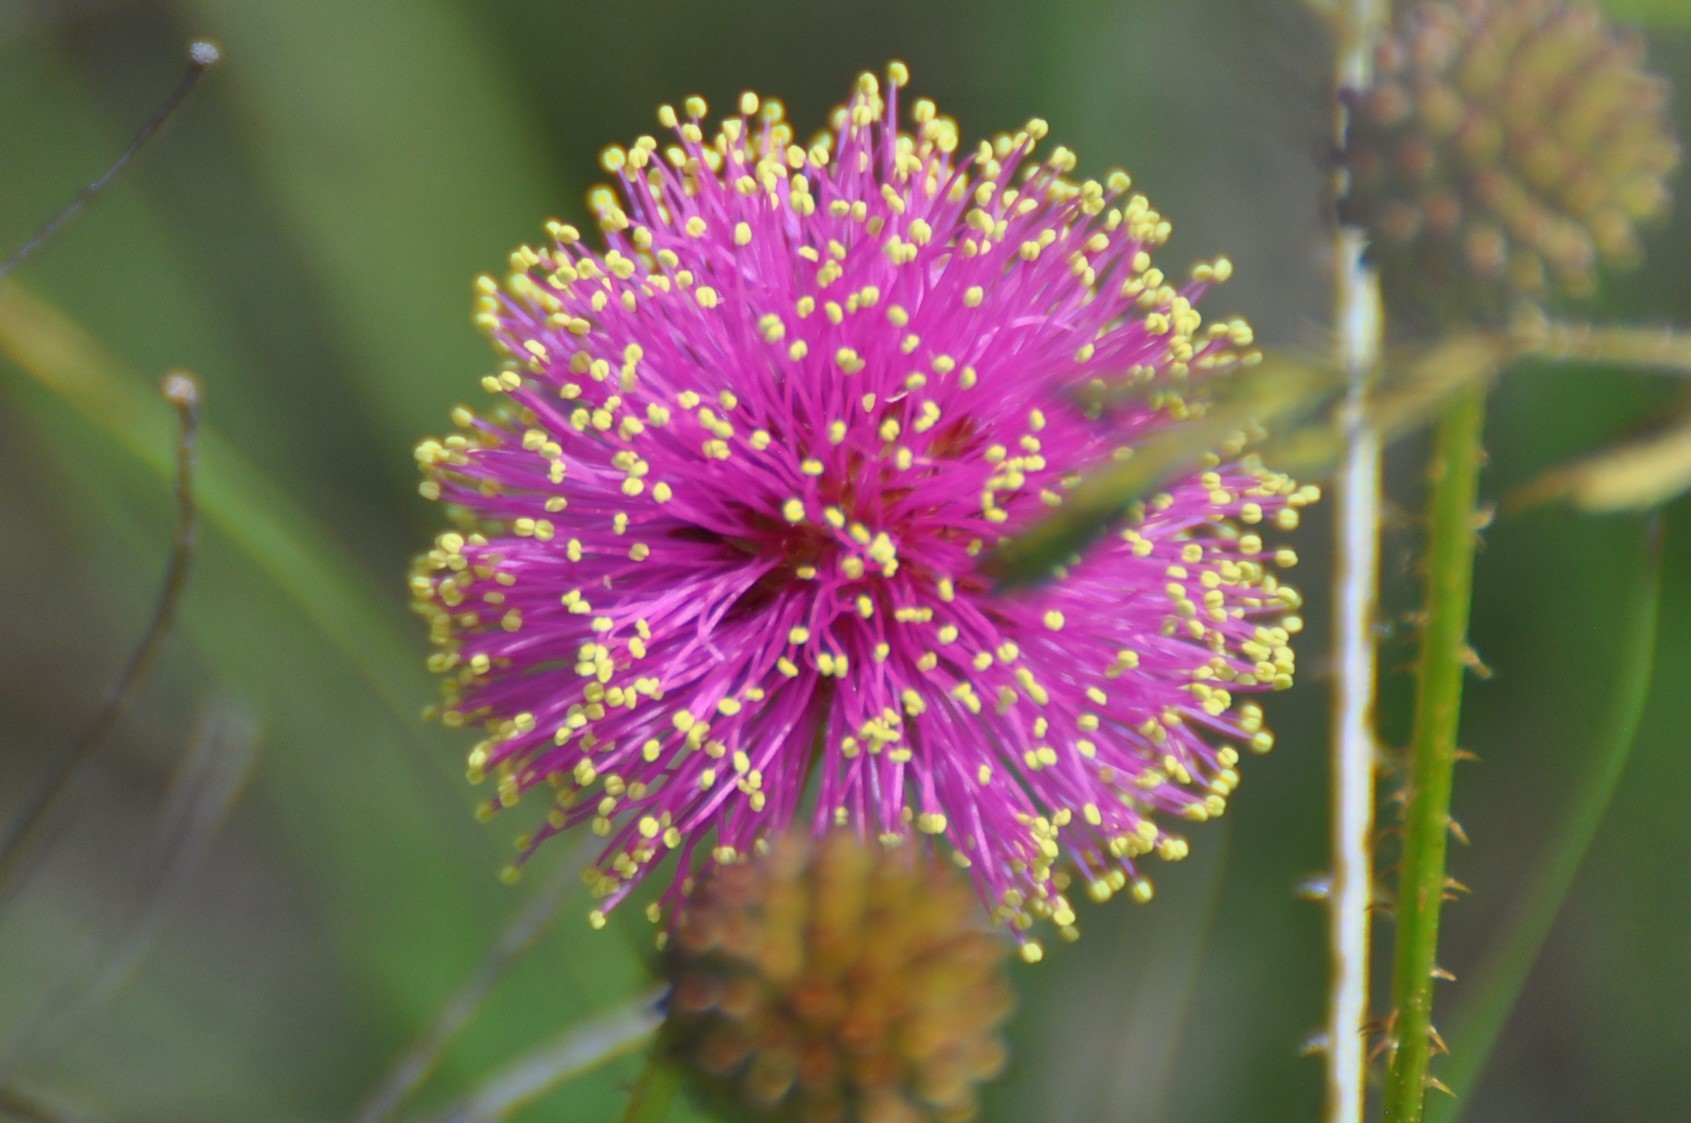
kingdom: Plantae
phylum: Tracheophyta
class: Magnoliopsida
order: Fabales
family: Fabaceae
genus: Mimosa
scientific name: Mimosa quadrivalvis
